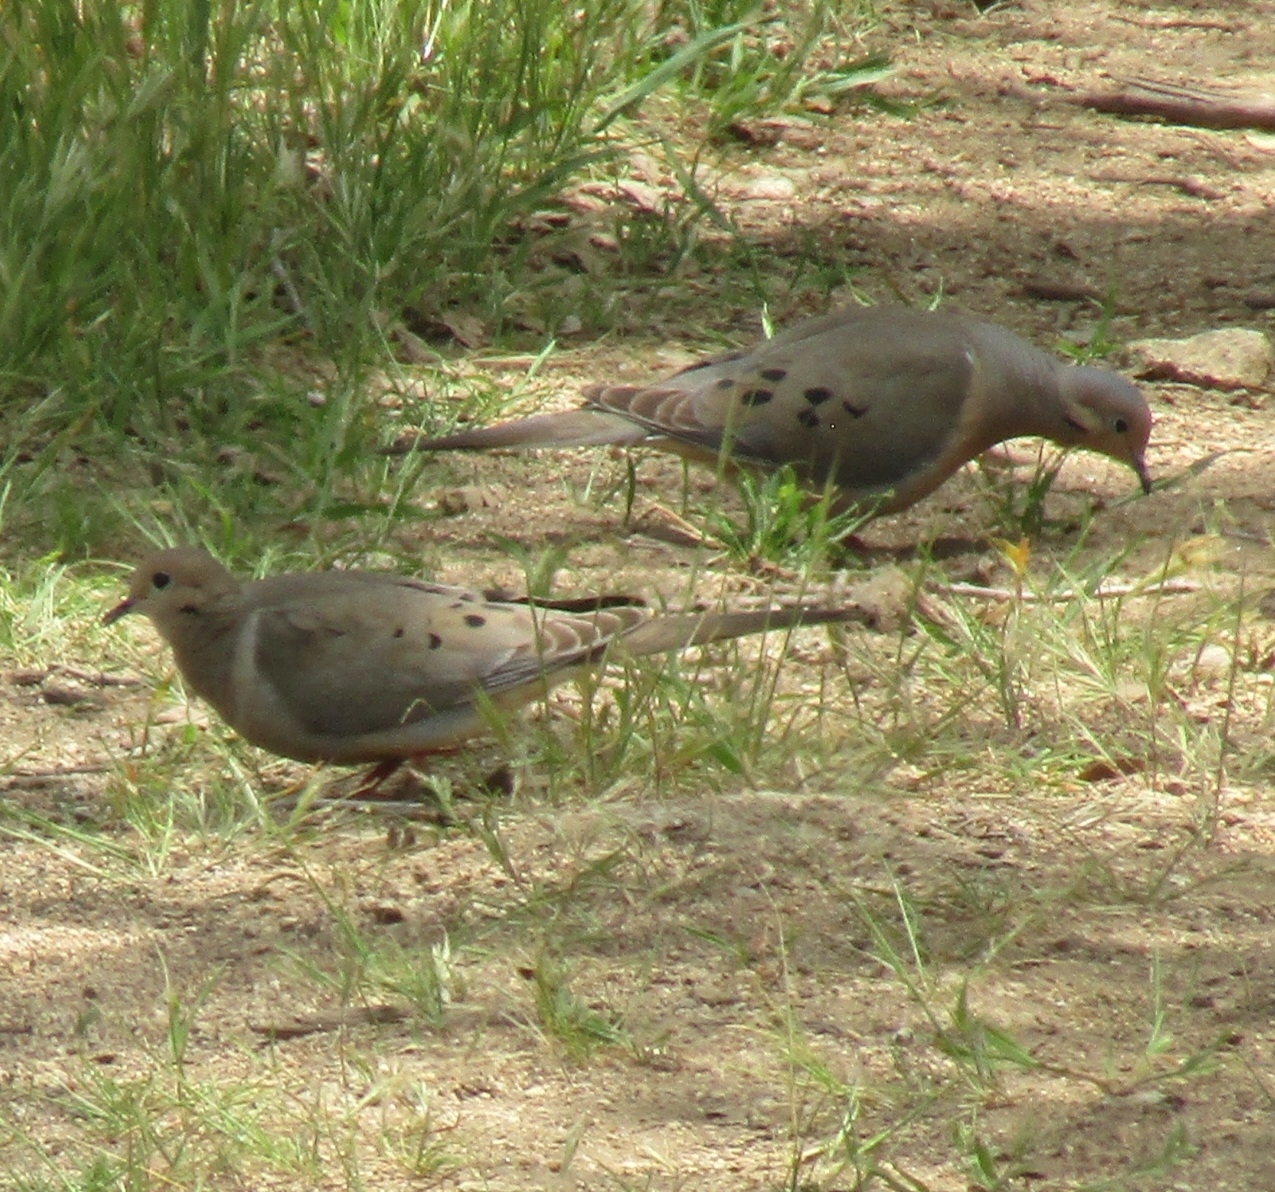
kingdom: Animalia
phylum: Chordata
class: Aves
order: Columbiformes
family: Columbidae
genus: Zenaida
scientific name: Zenaida macroura
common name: Mourning dove
